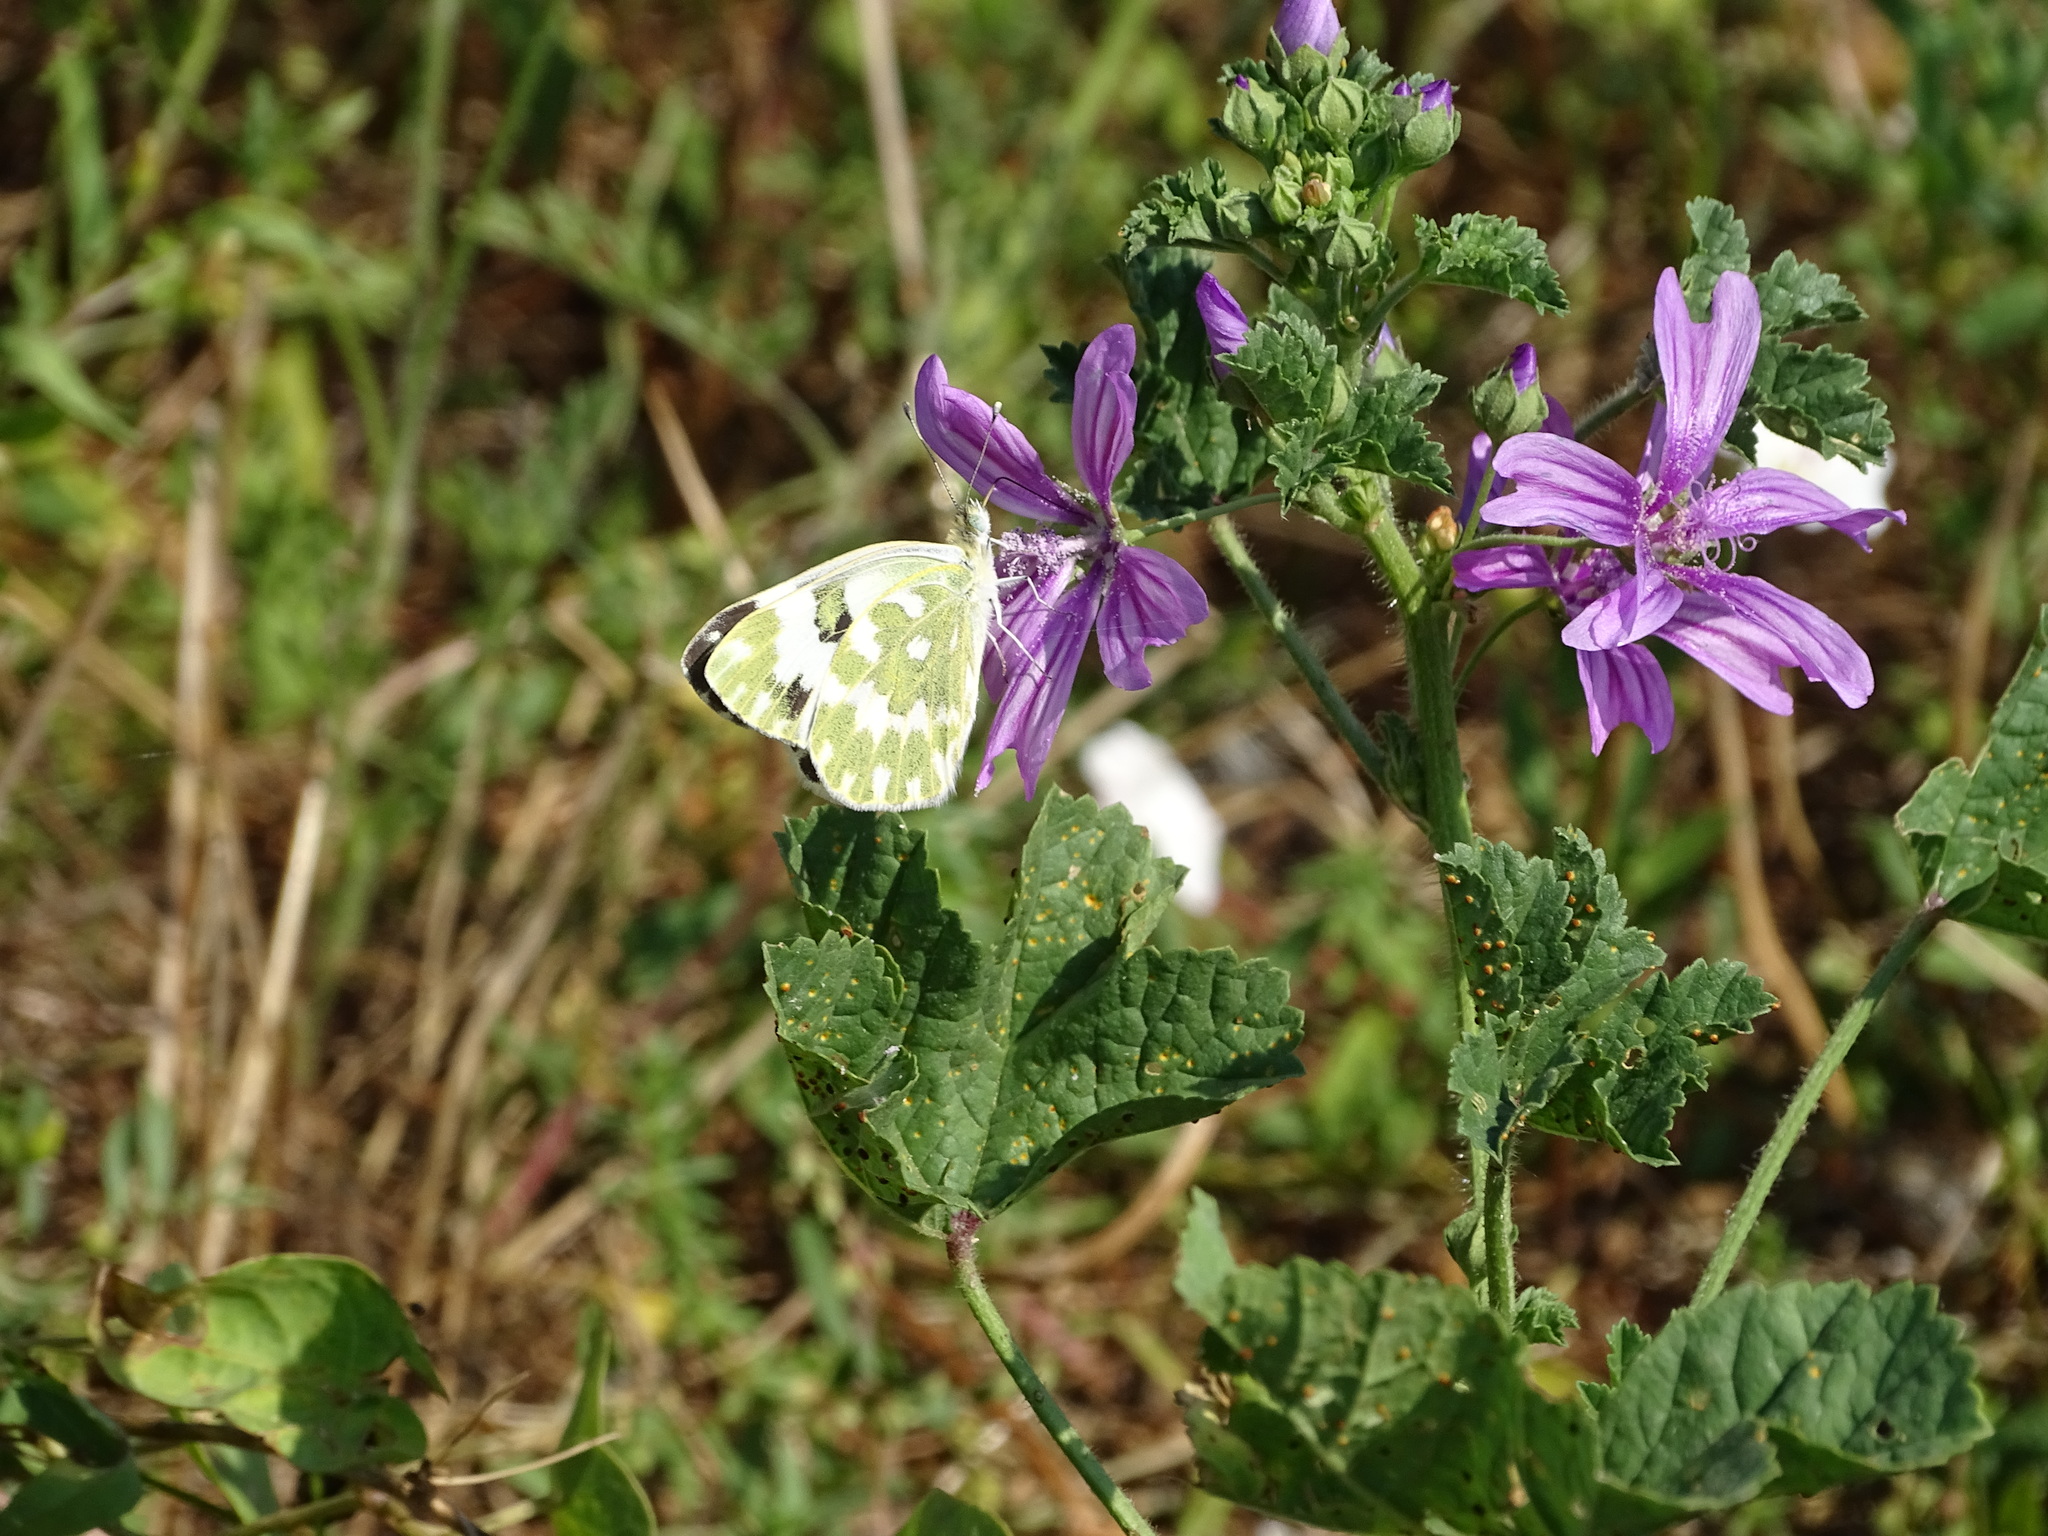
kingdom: Animalia
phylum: Arthropoda
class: Insecta
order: Lepidoptera
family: Pieridae
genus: Pontia
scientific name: Pontia edusa
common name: Eastern bath white
